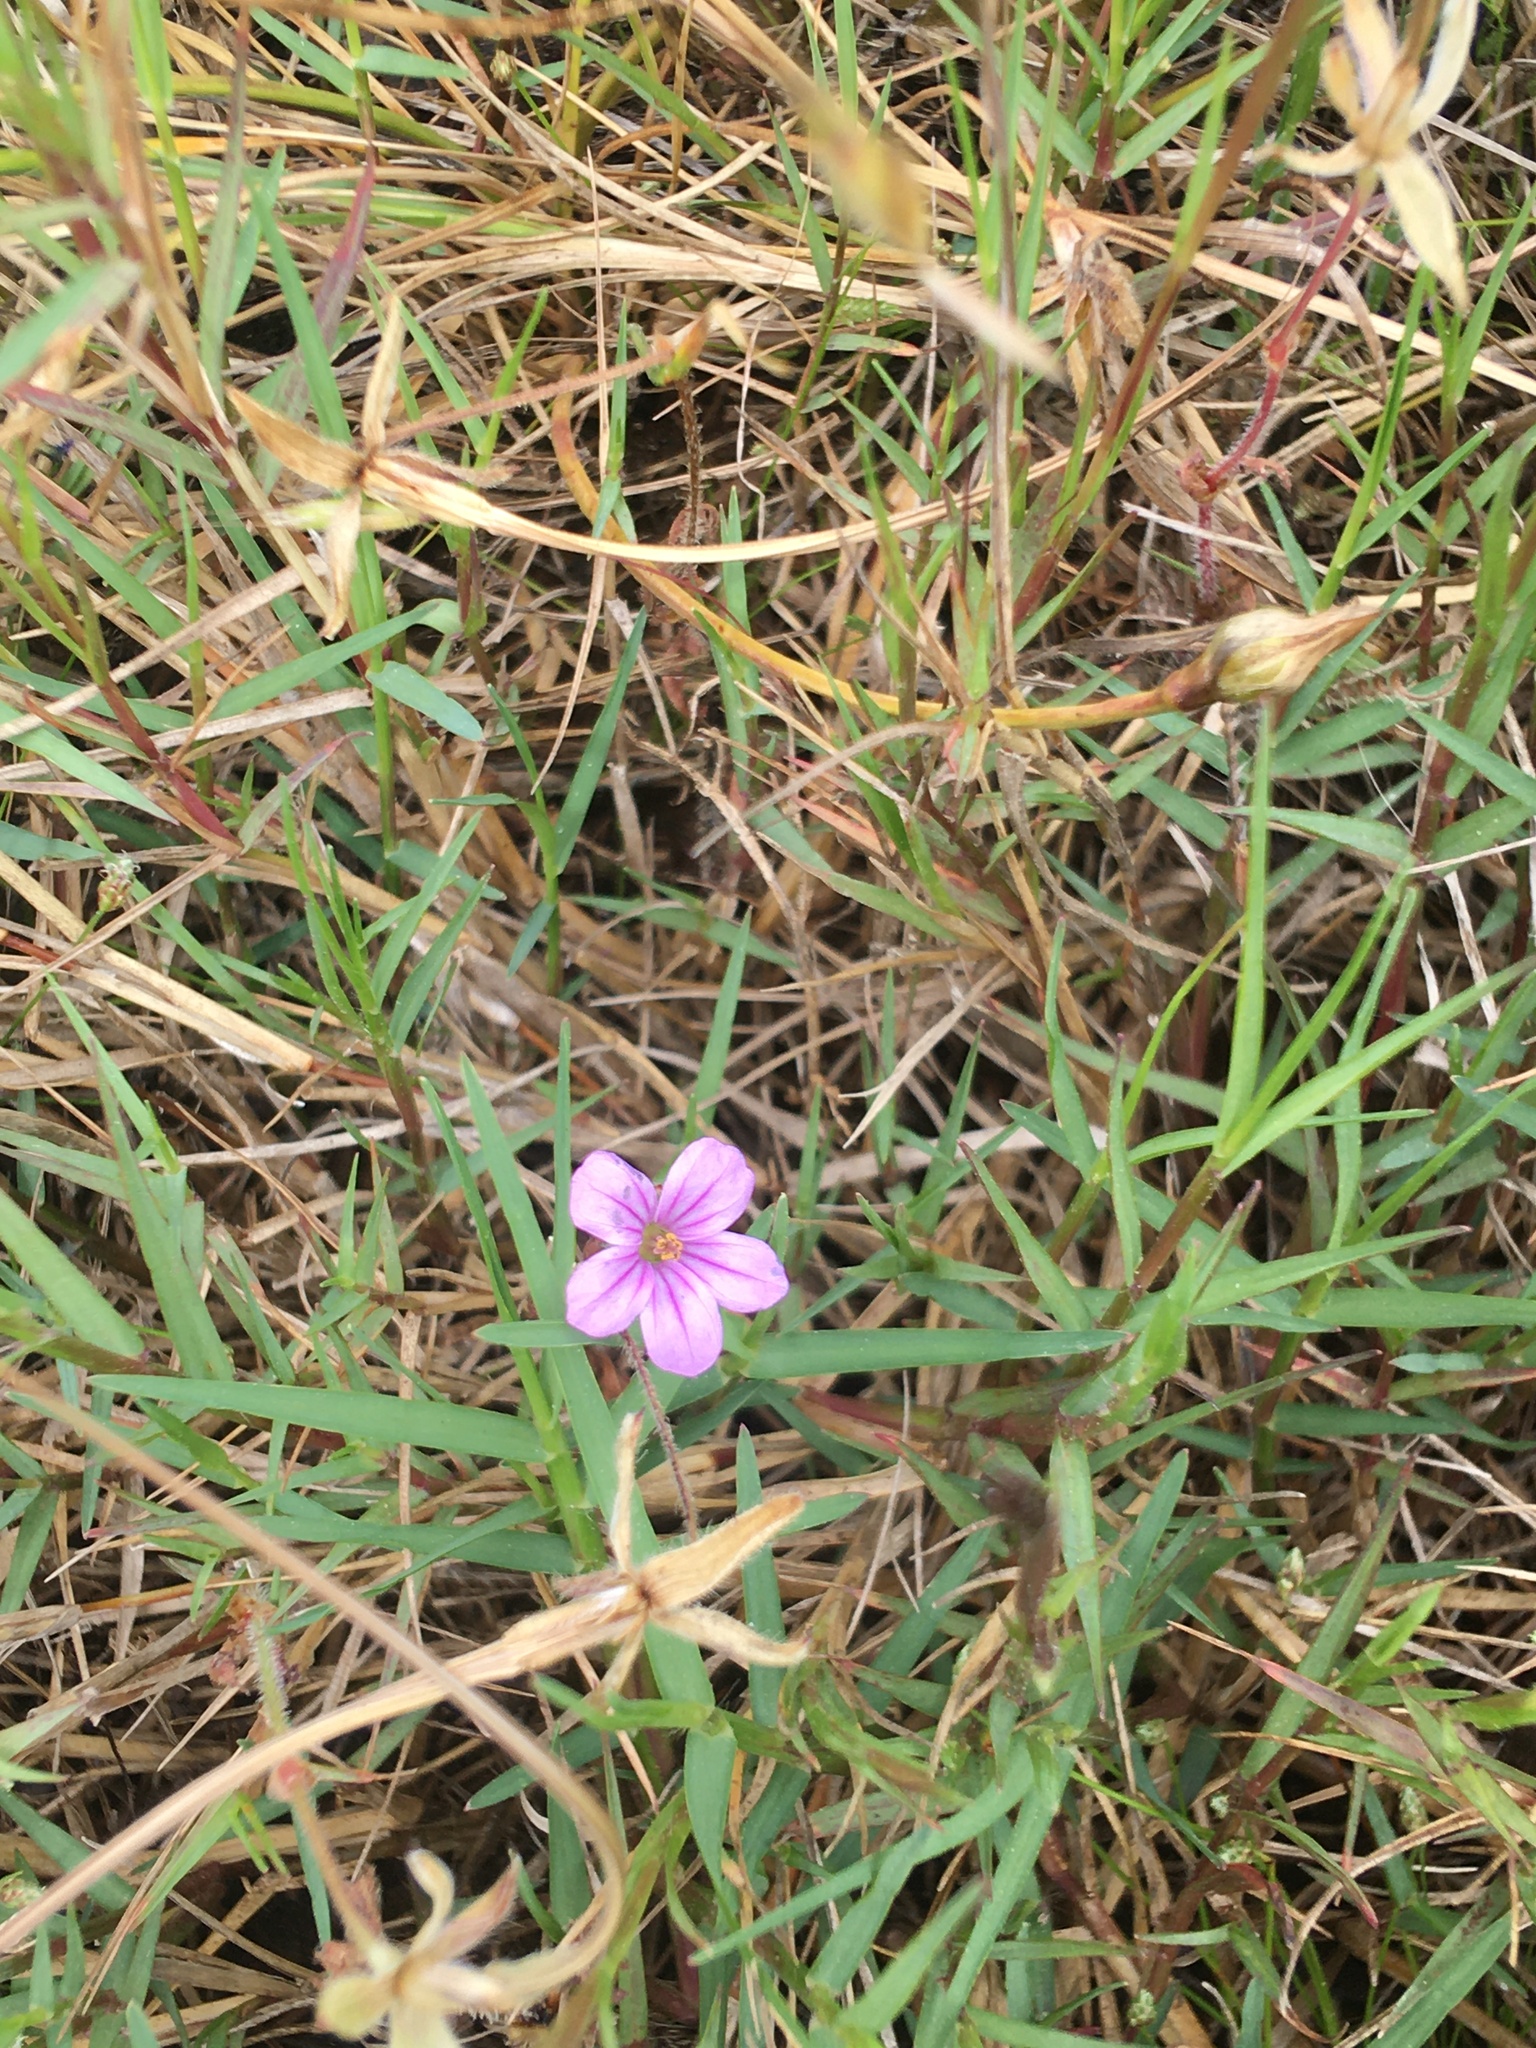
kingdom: Plantae
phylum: Tracheophyta
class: Magnoliopsida
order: Geraniales
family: Geraniaceae
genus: Erodium
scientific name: Erodium botrys
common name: Mediterranean stork's-bill
